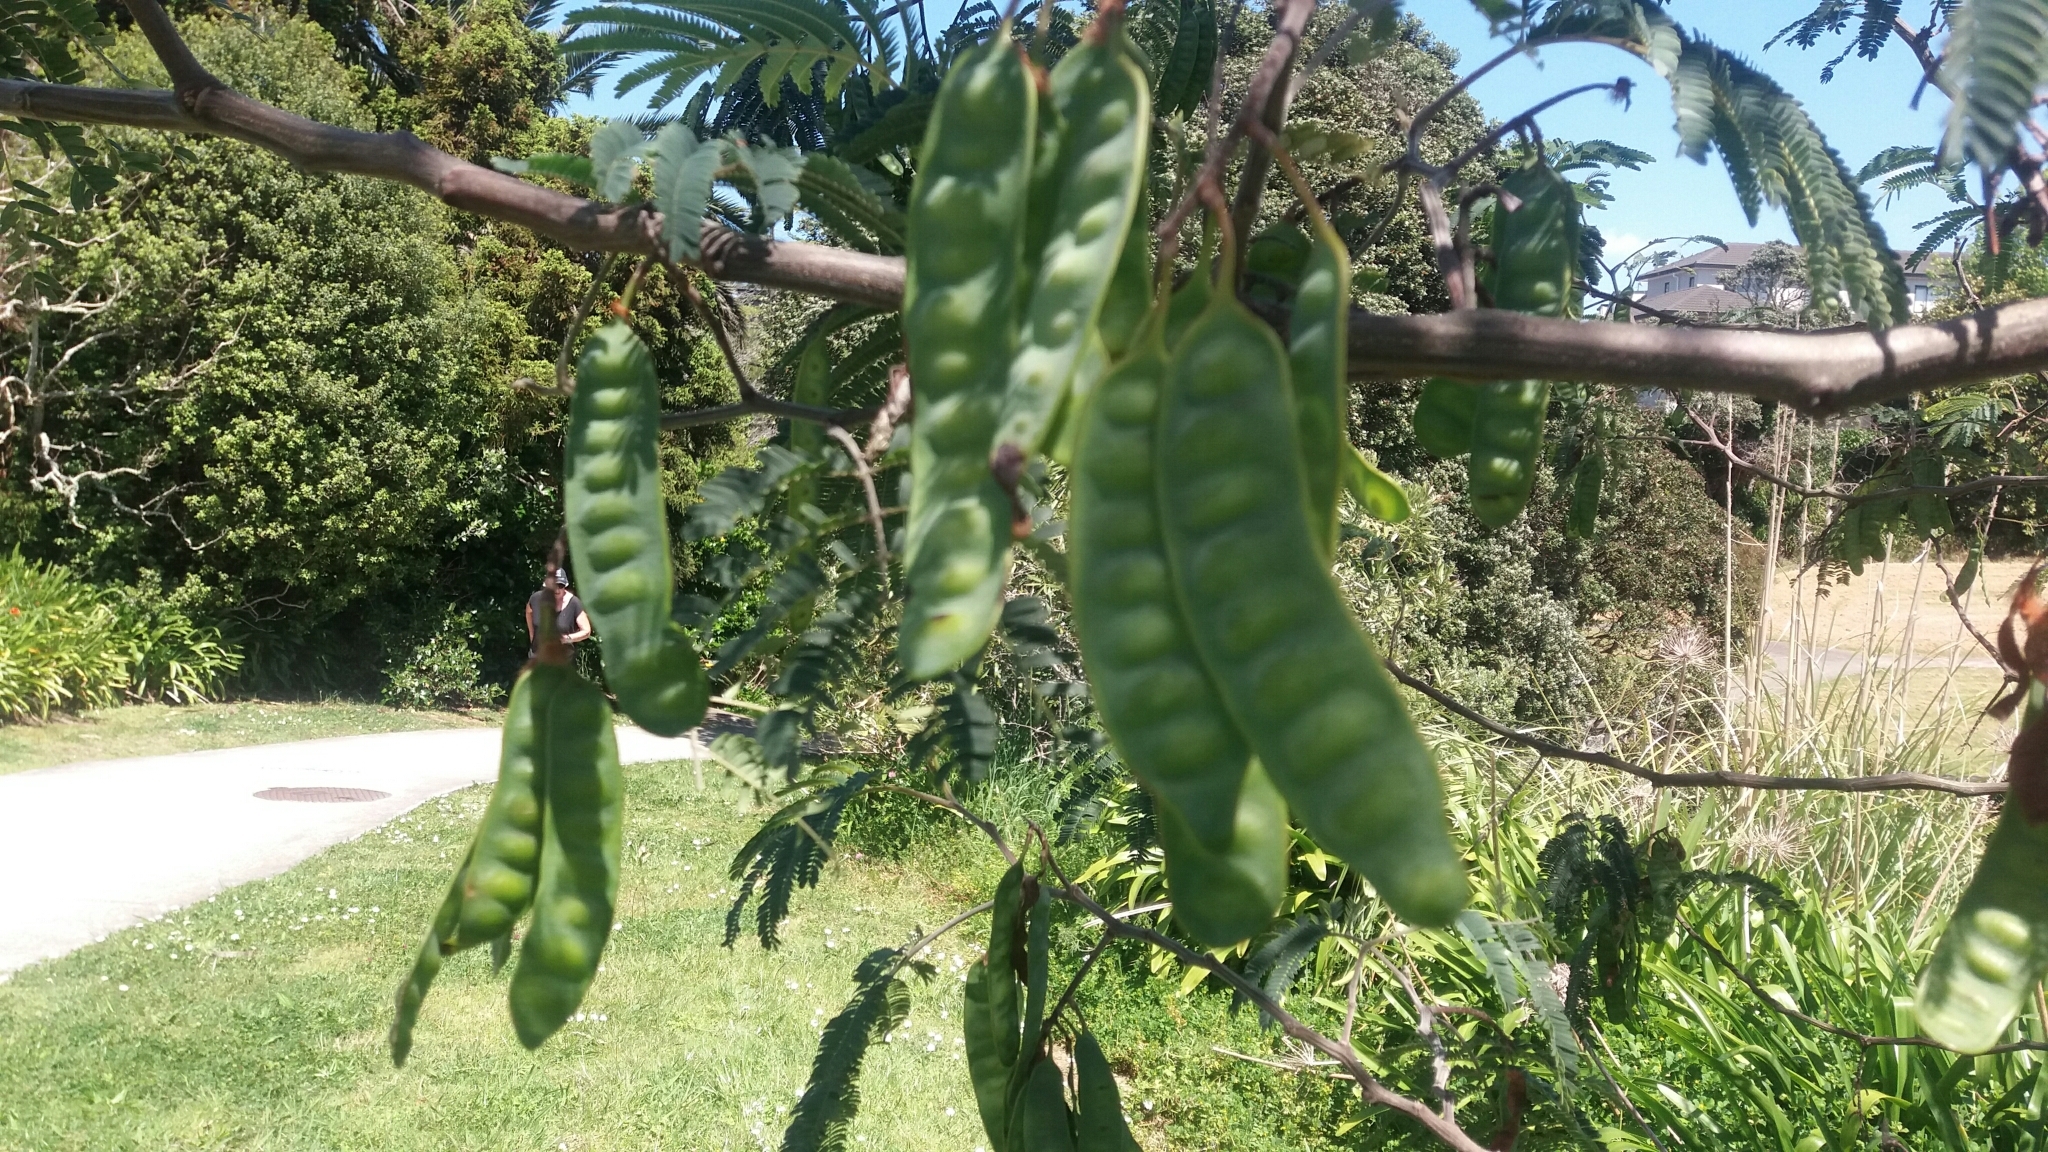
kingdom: Plantae
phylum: Tracheophyta
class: Magnoliopsida
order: Fabales
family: Fabaceae
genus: Paraserianthes
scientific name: Paraserianthes lophantha
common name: Plume albizia
